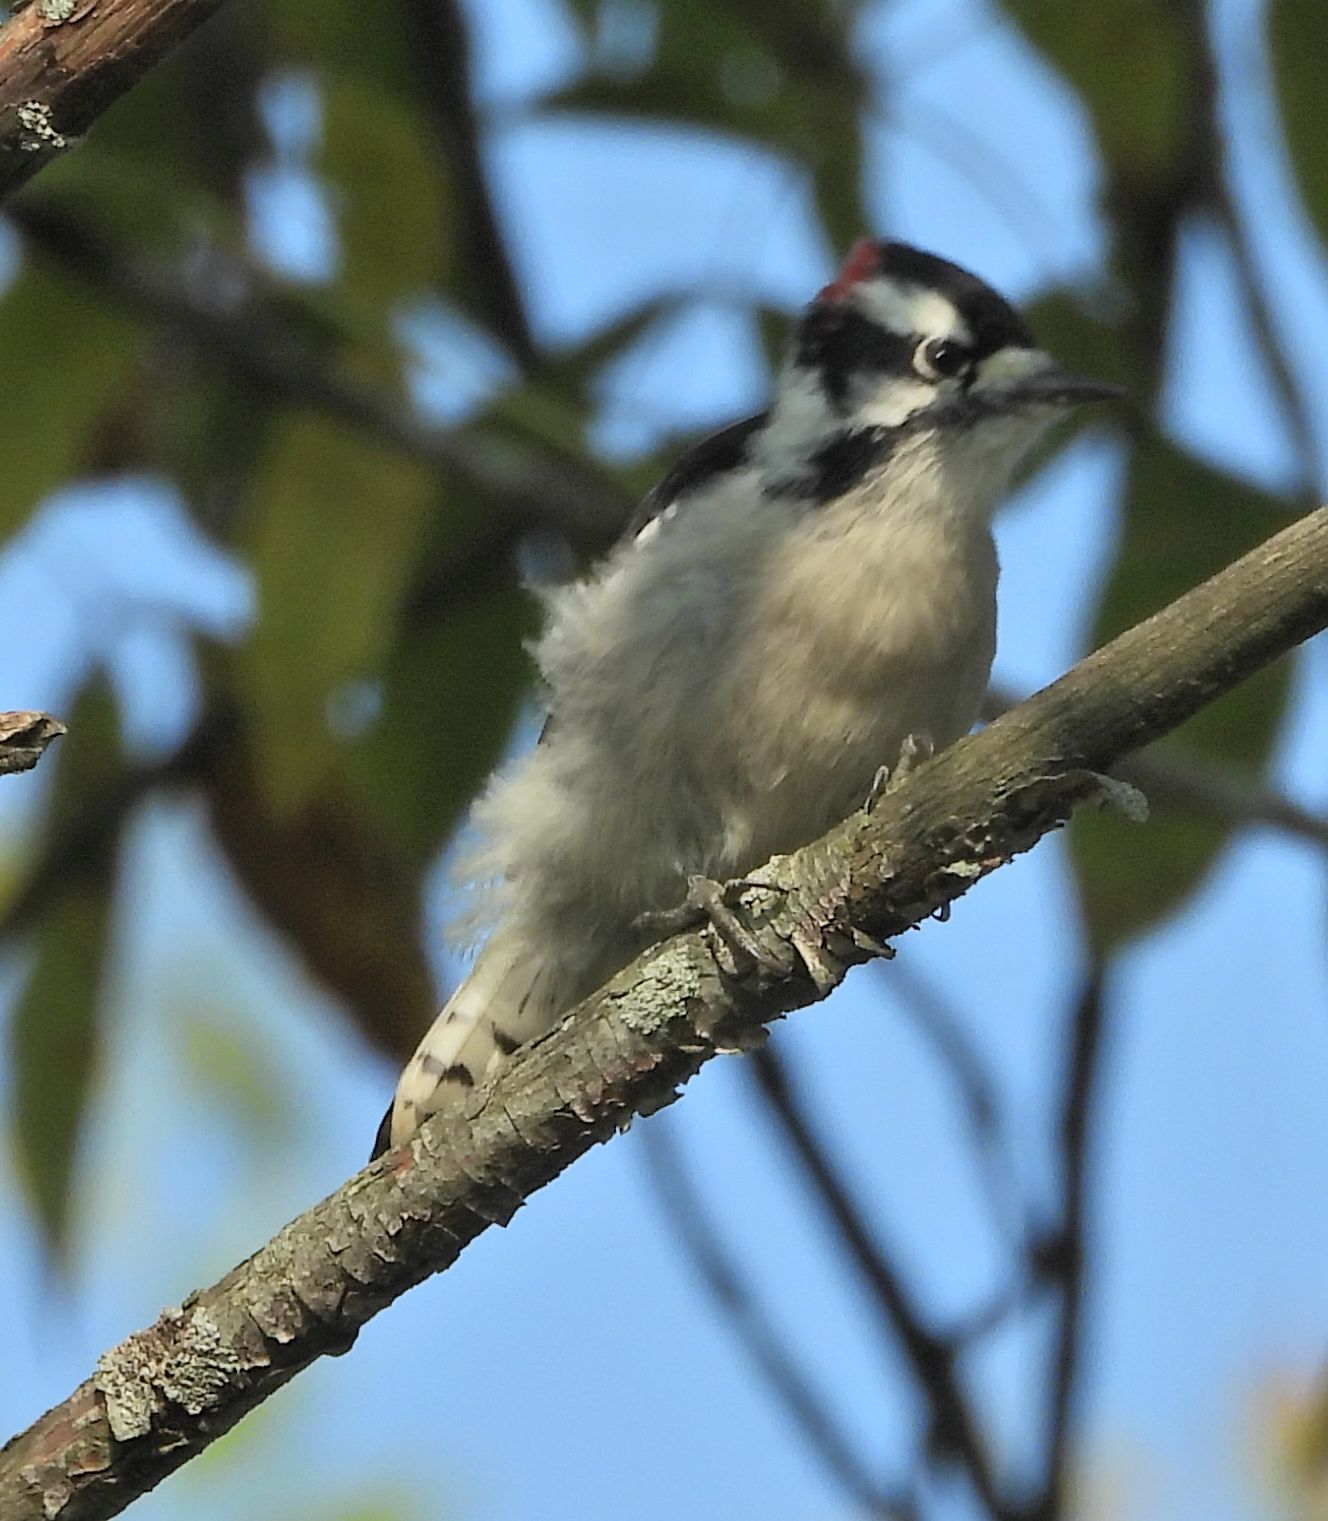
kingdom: Animalia
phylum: Chordata
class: Aves
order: Piciformes
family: Picidae
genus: Dryobates
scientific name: Dryobates pubescens
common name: Downy woodpecker
